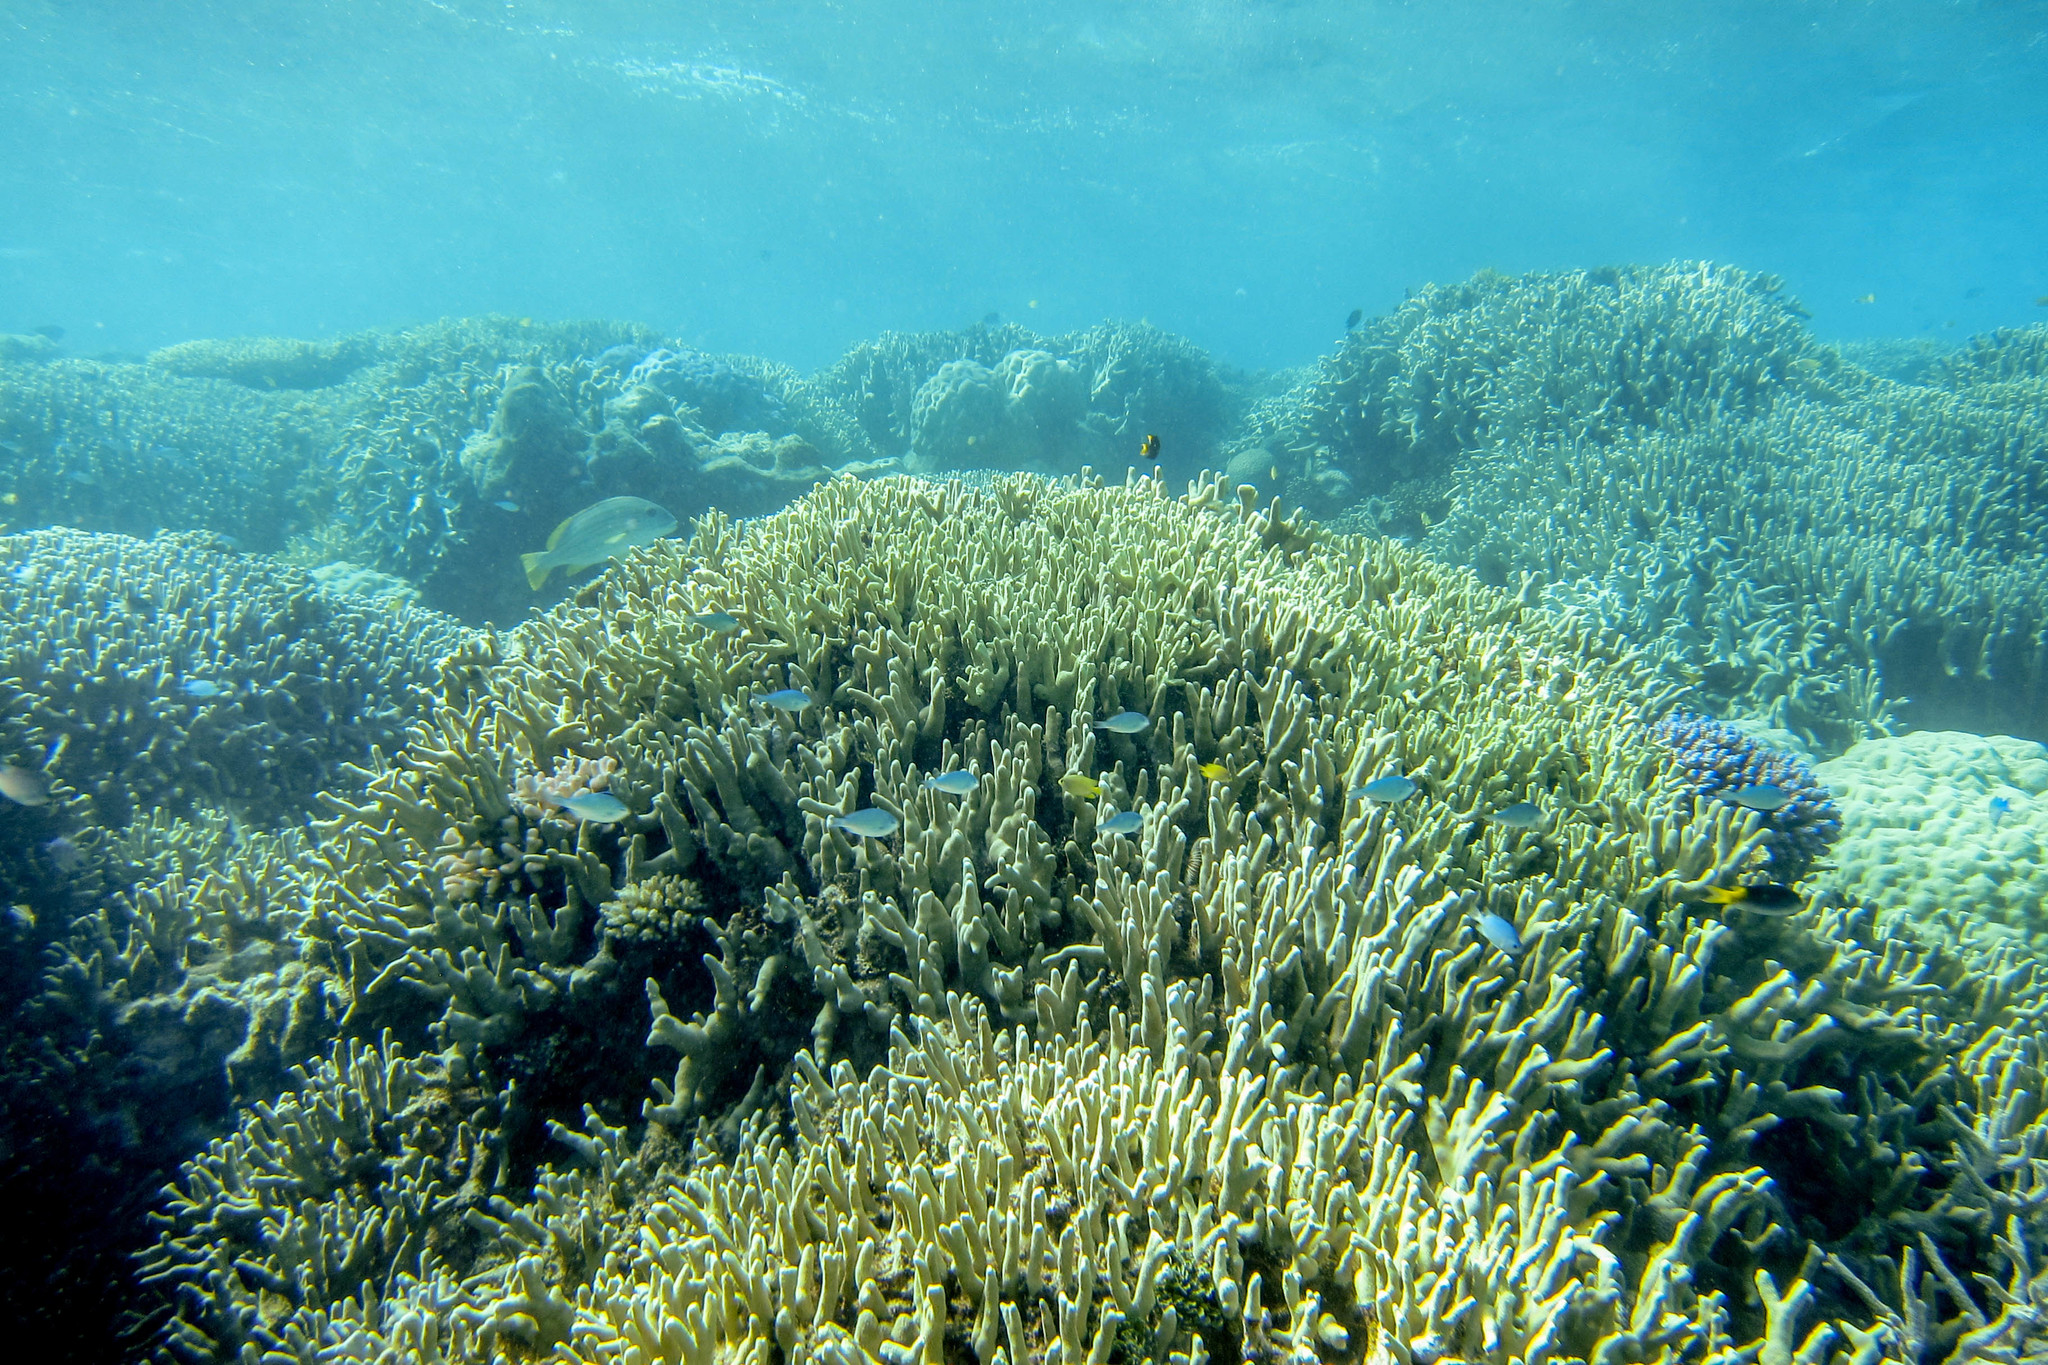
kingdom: Animalia
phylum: Chordata
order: Perciformes
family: Pomacentridae
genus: Neopomacentrus
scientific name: Neopomacentrus azysron
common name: Yellow-tail damsel
